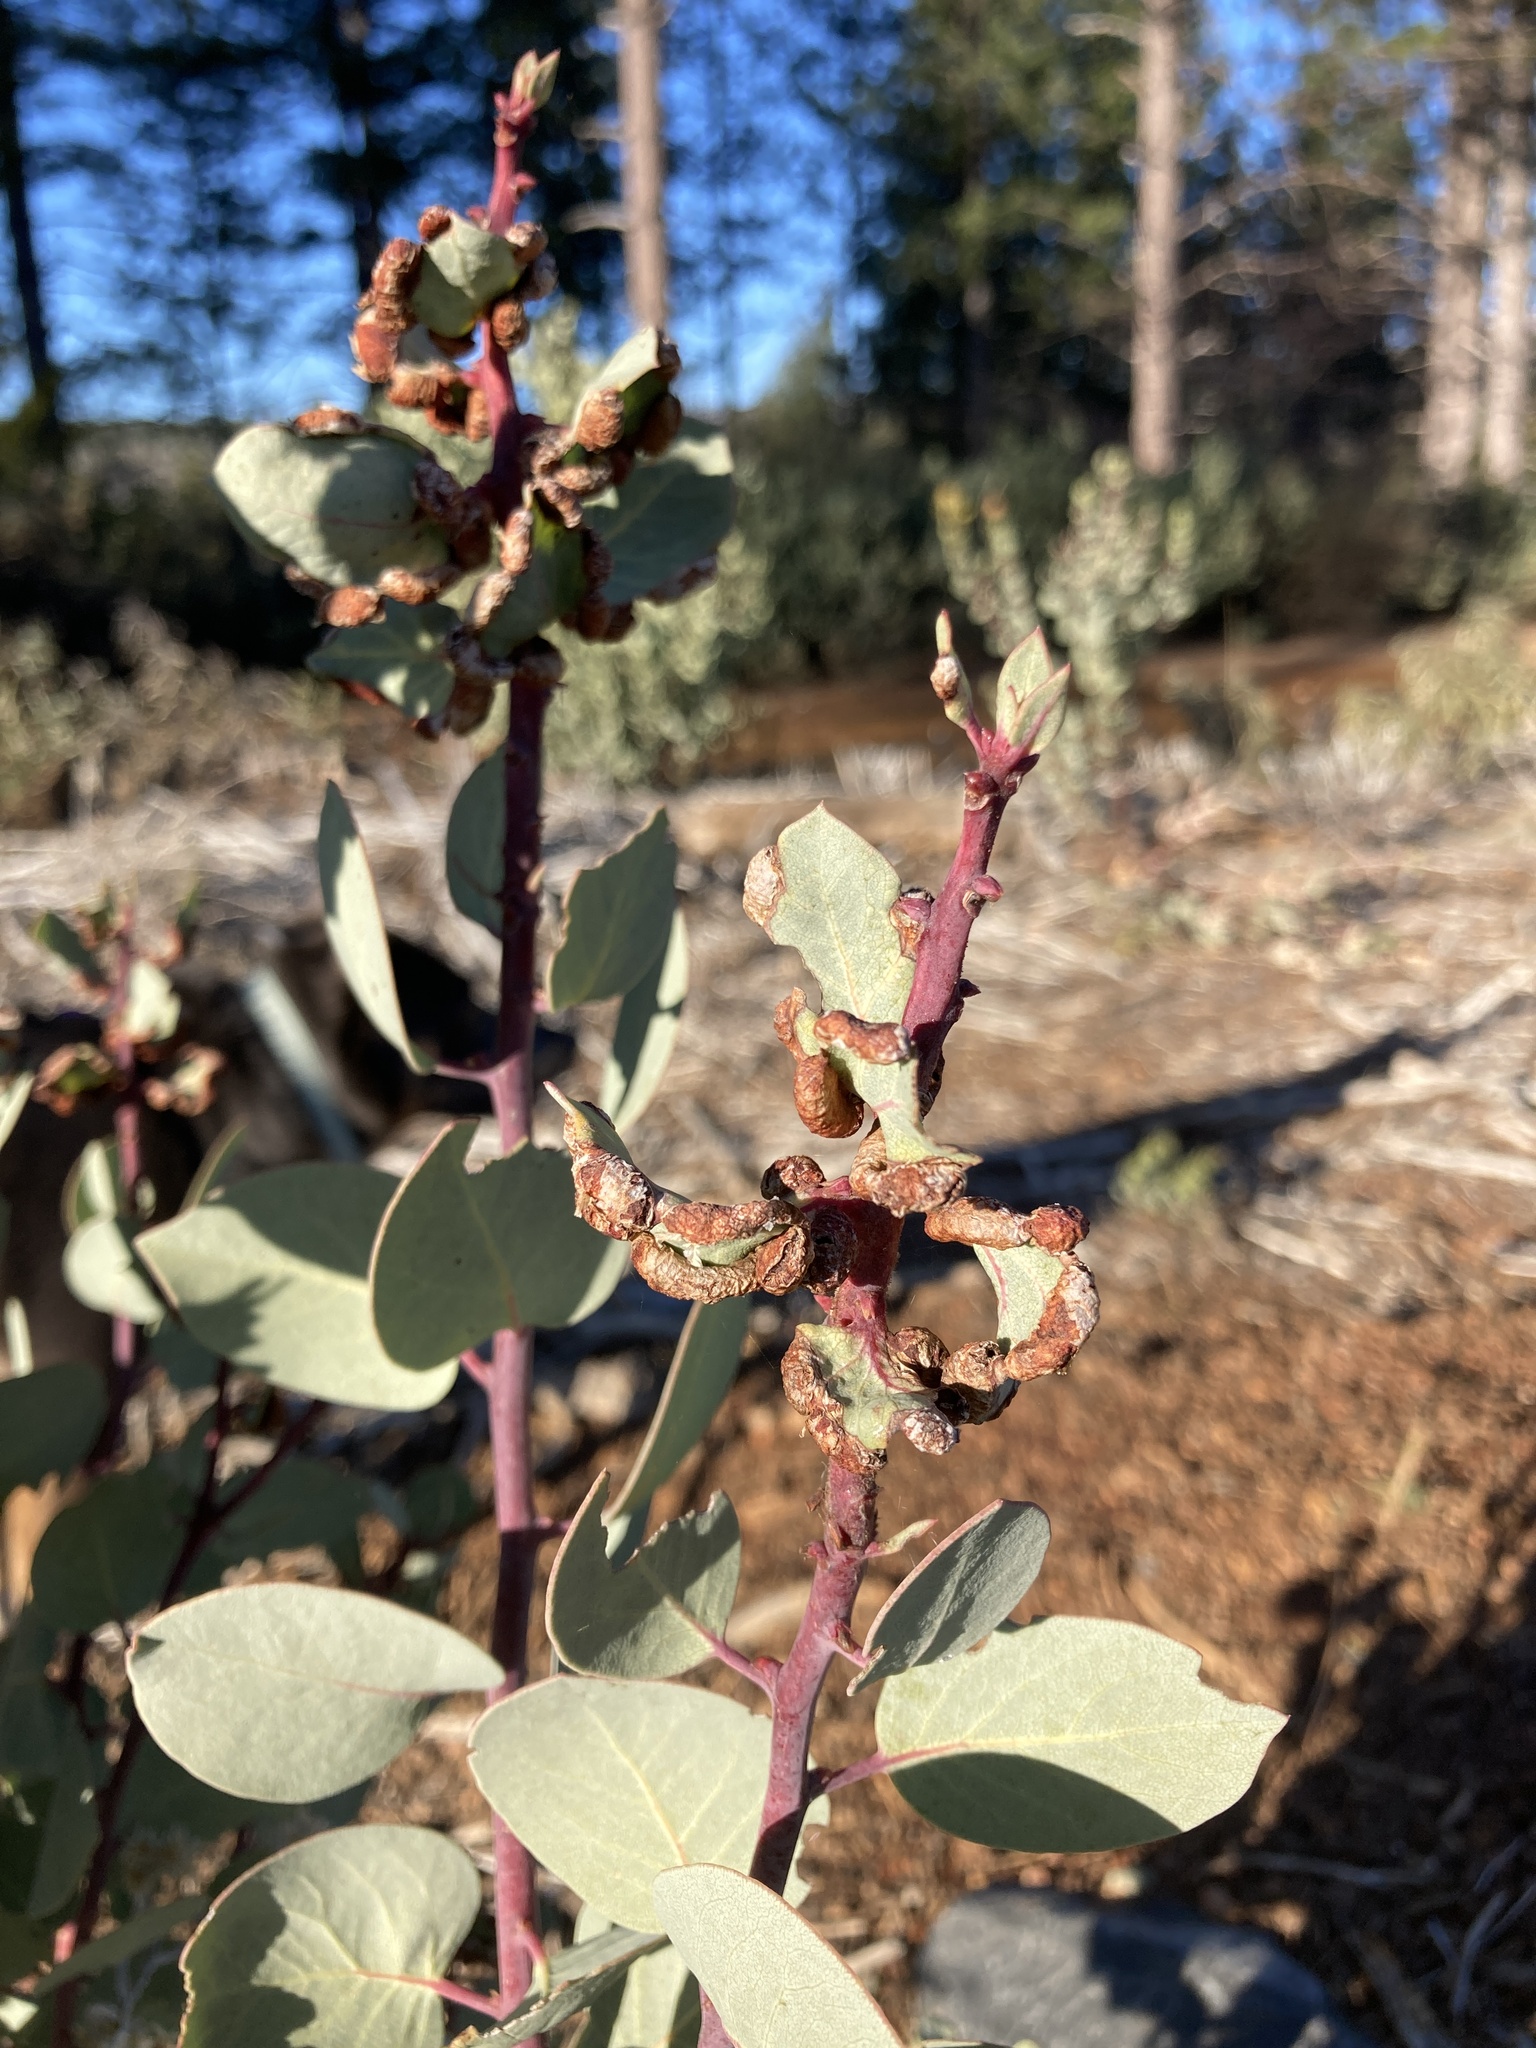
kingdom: Animalia
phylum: Arthropoda
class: Insecta
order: Hemiptera
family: Aphididae
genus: Tamalia
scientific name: Tamalia coweni
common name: Manzanita leafgall aphid
